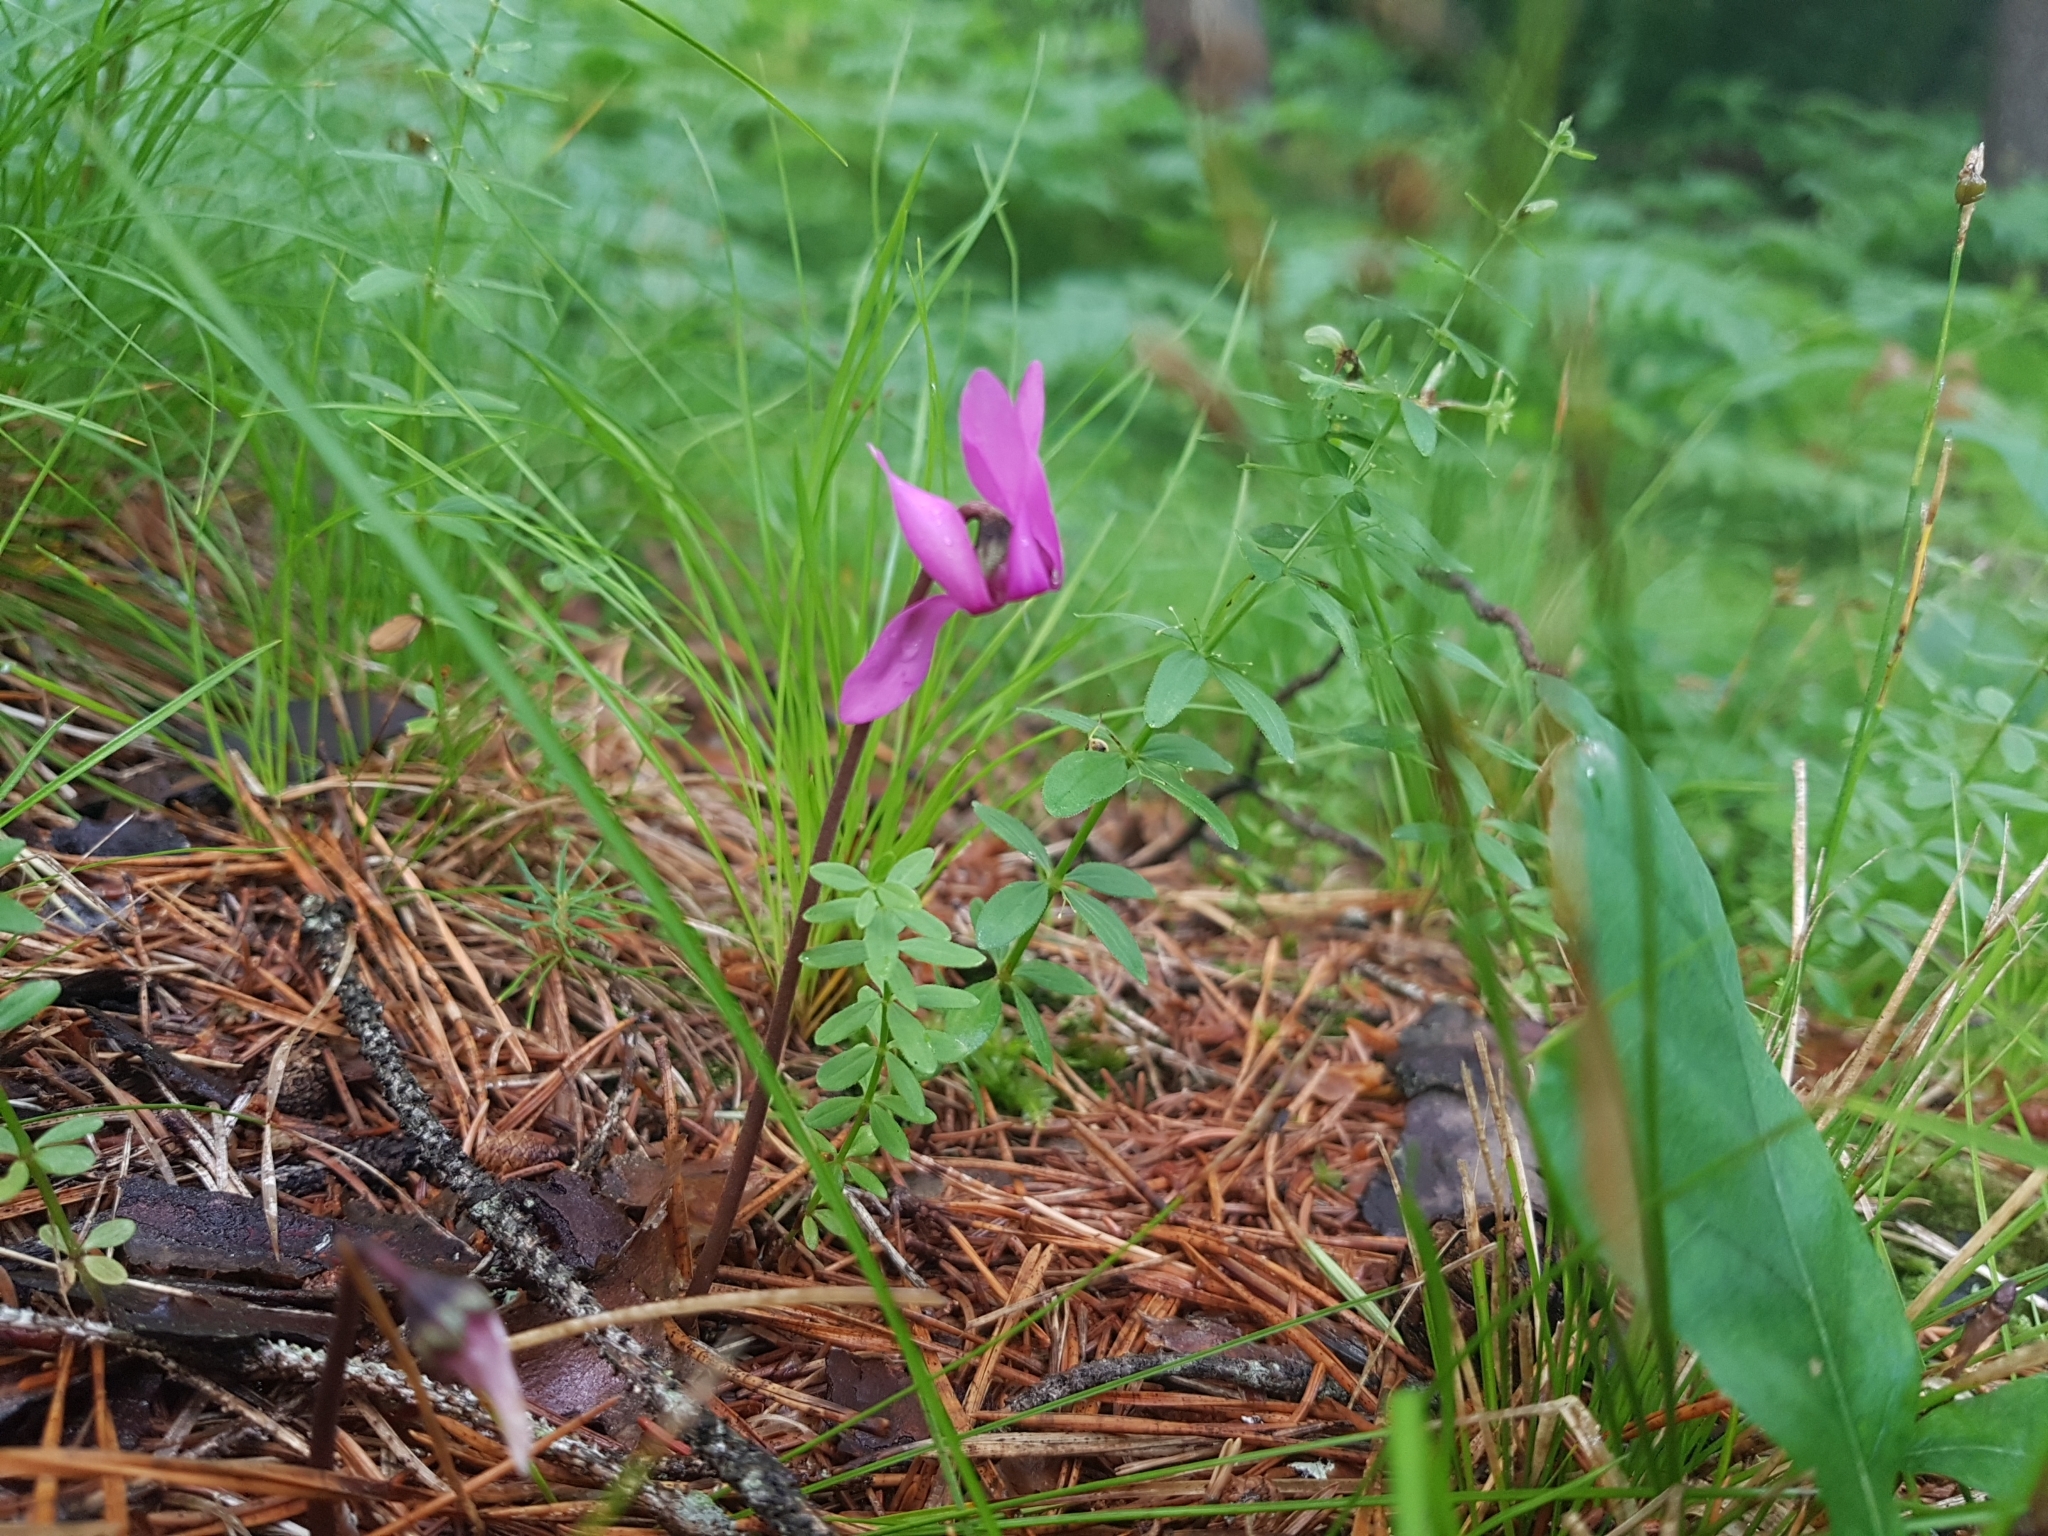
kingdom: Plantae
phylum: Tracheophyta
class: Magnoliopsida
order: Ericales
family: Primulaceae
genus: Cyclamen
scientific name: Cyclamen purpurascens
